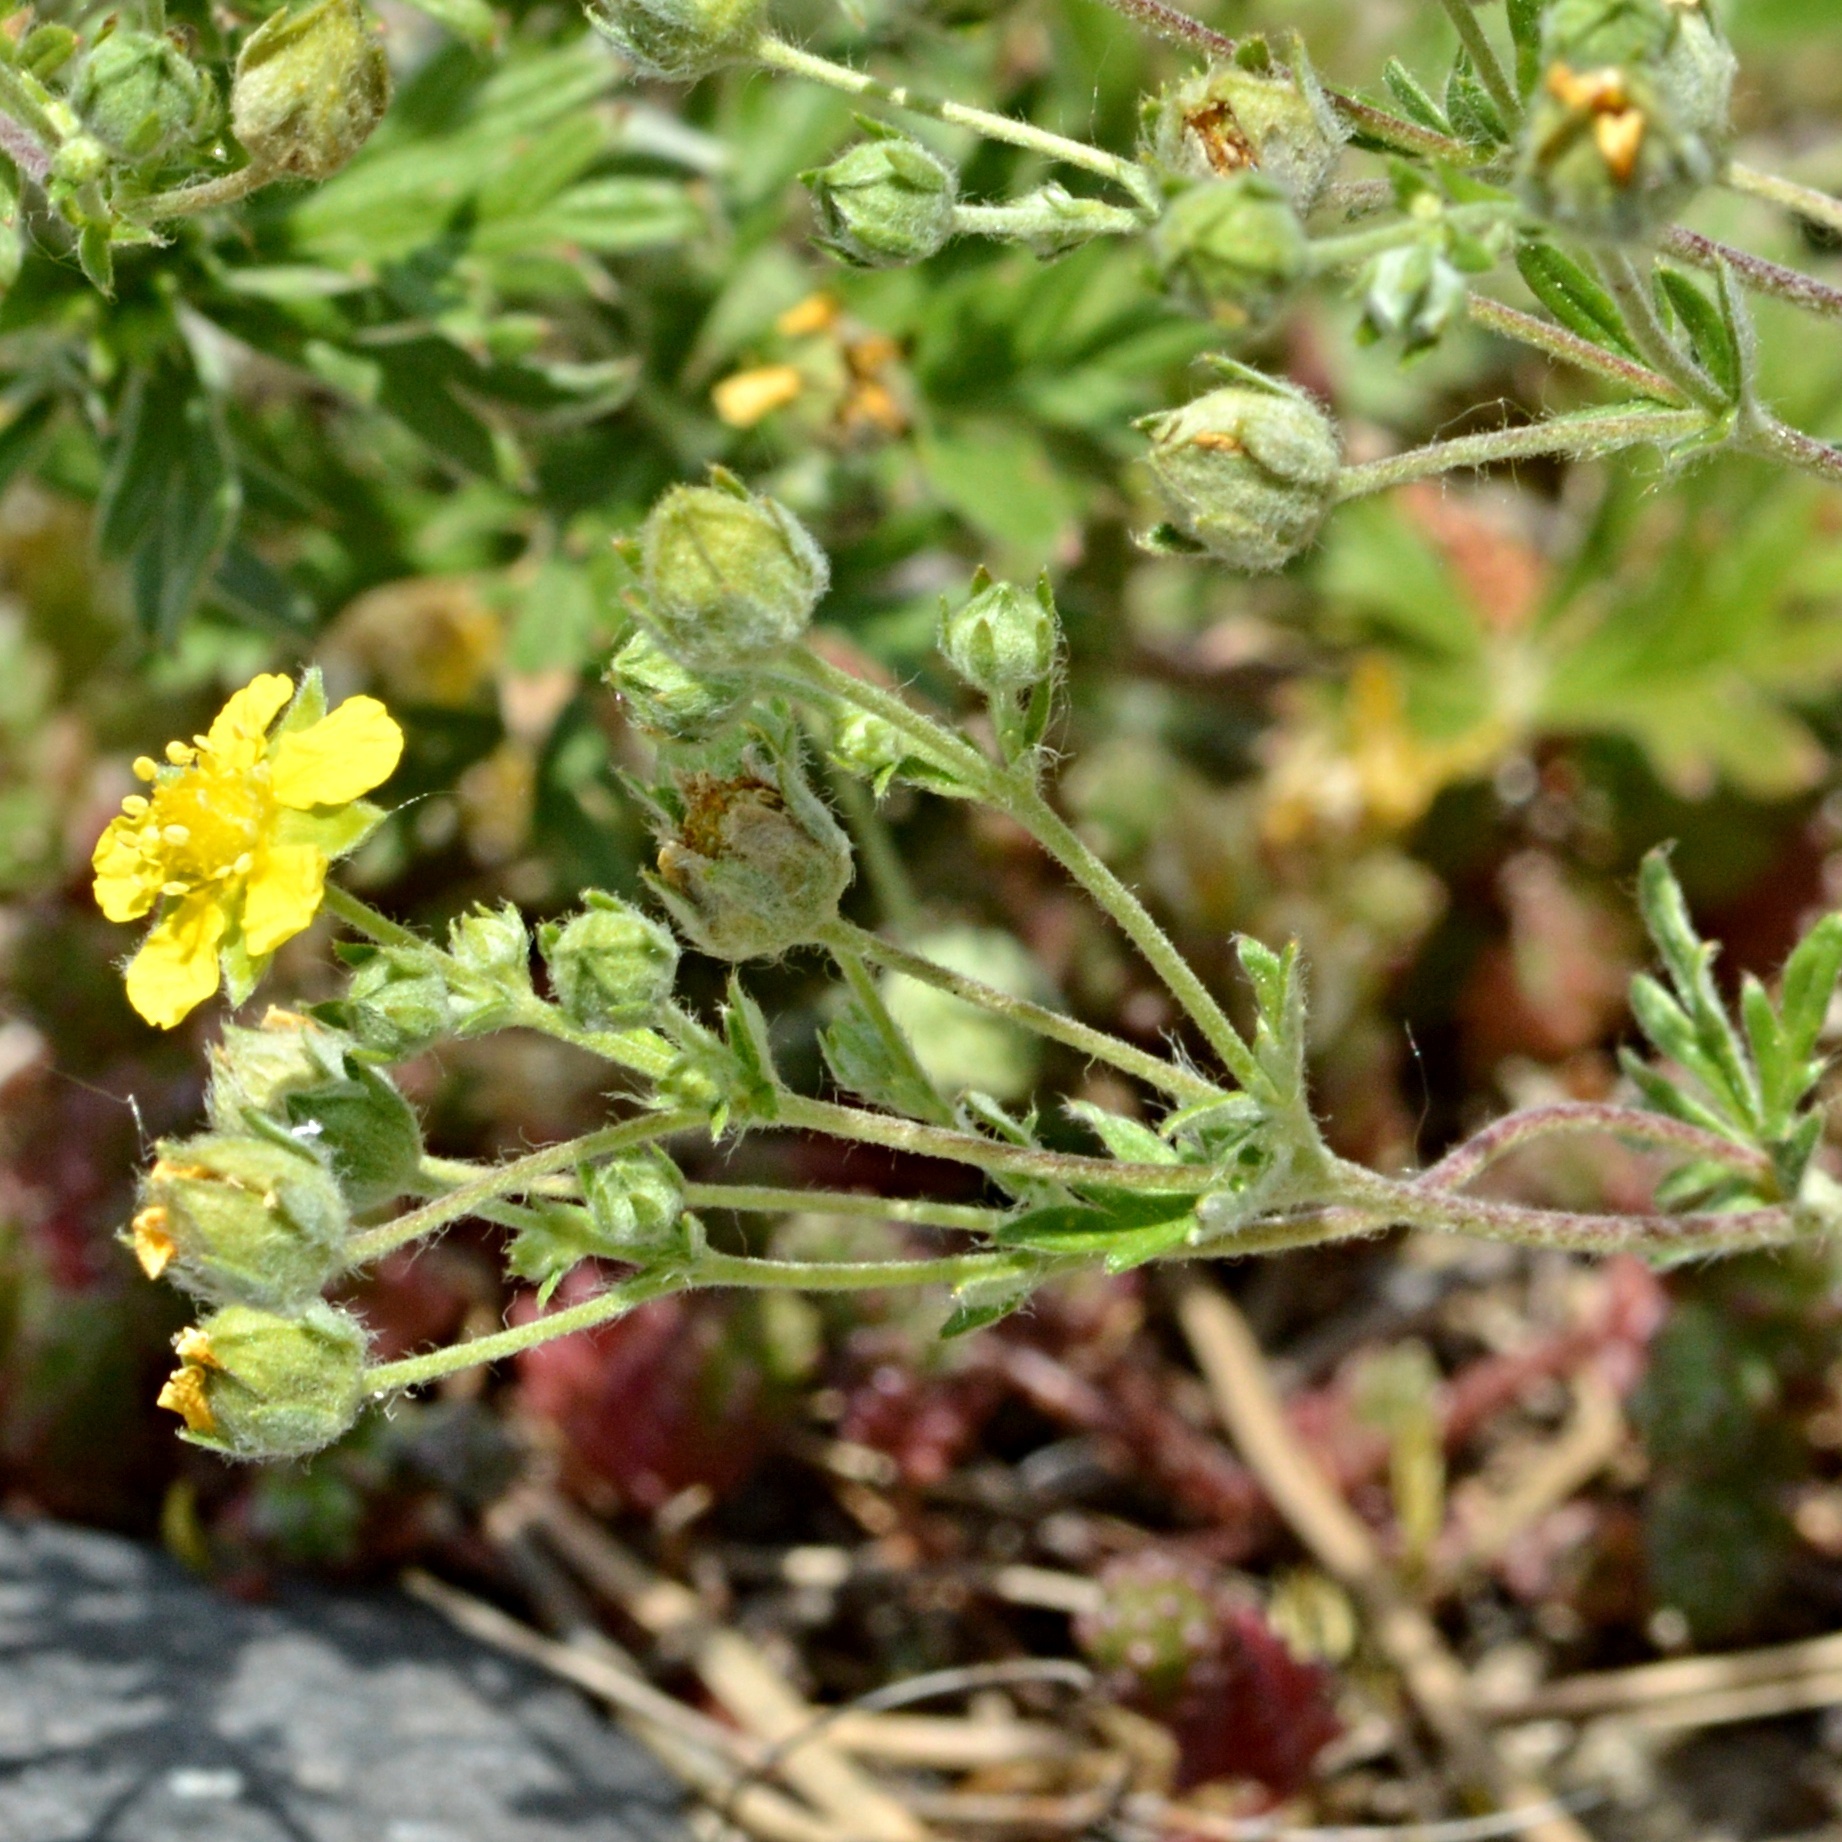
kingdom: Plantae
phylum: Tracheophyta
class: Magnoliopsida
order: Rosales
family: Rosaceae
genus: Potentilla
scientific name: Potentilla argentea
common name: Hoary cinquefoil
